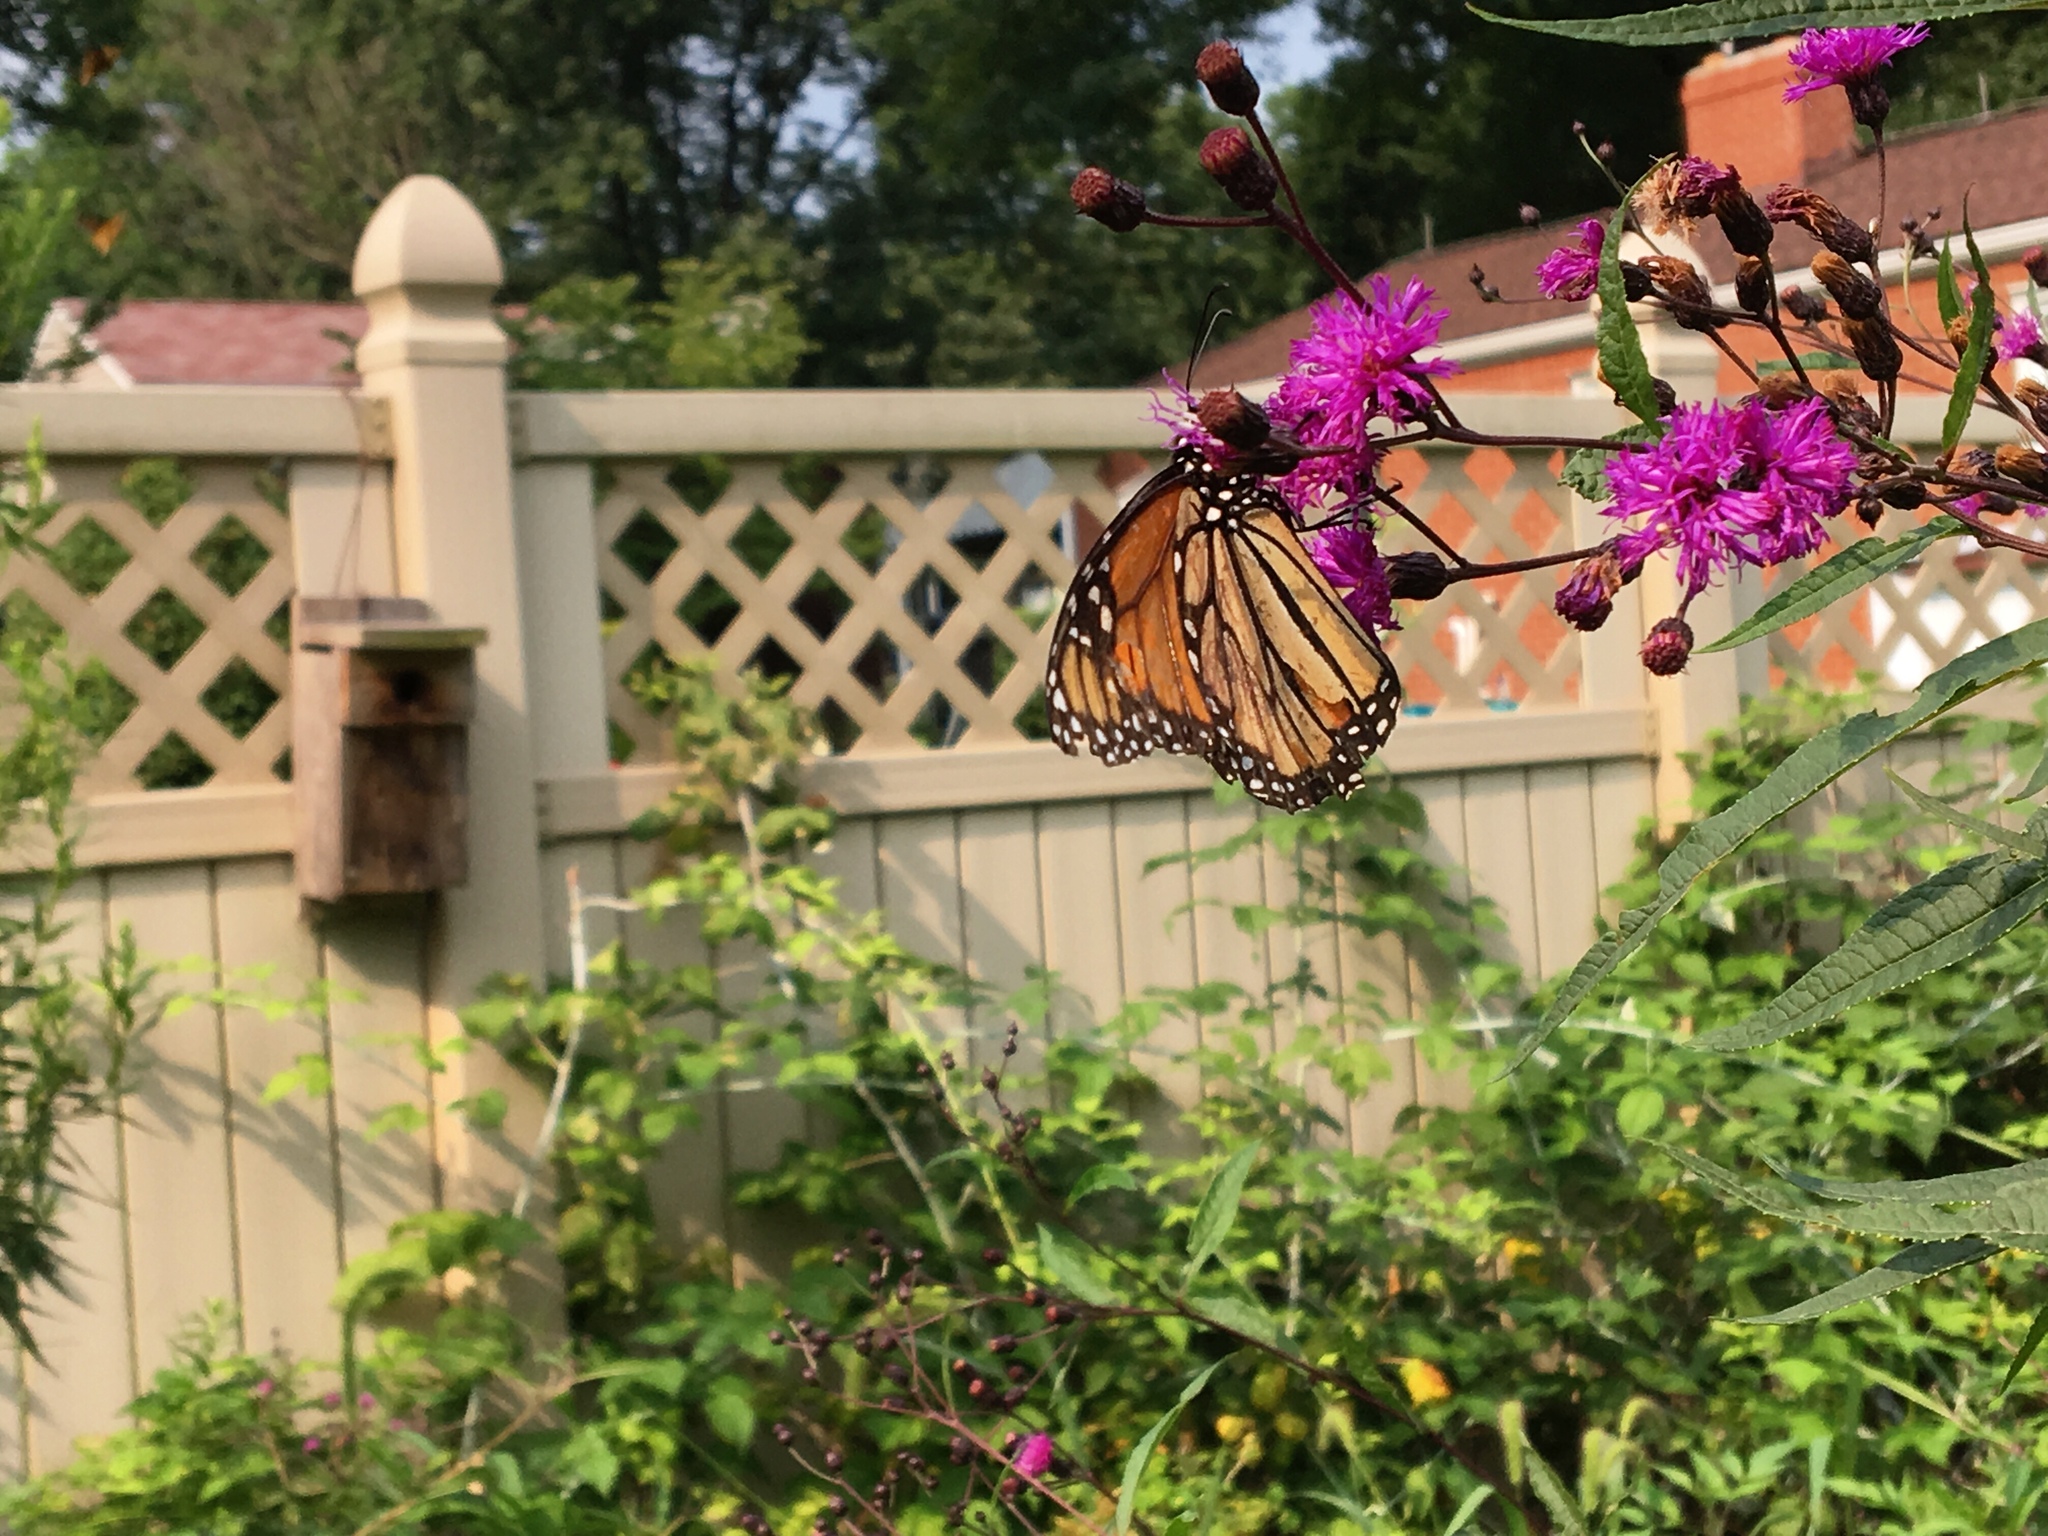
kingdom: Animalia
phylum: Arthropoda
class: Insecta
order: Lepidoptera
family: Nymphalidae
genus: Danaus
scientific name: Danaus plexippus
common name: Monarch
